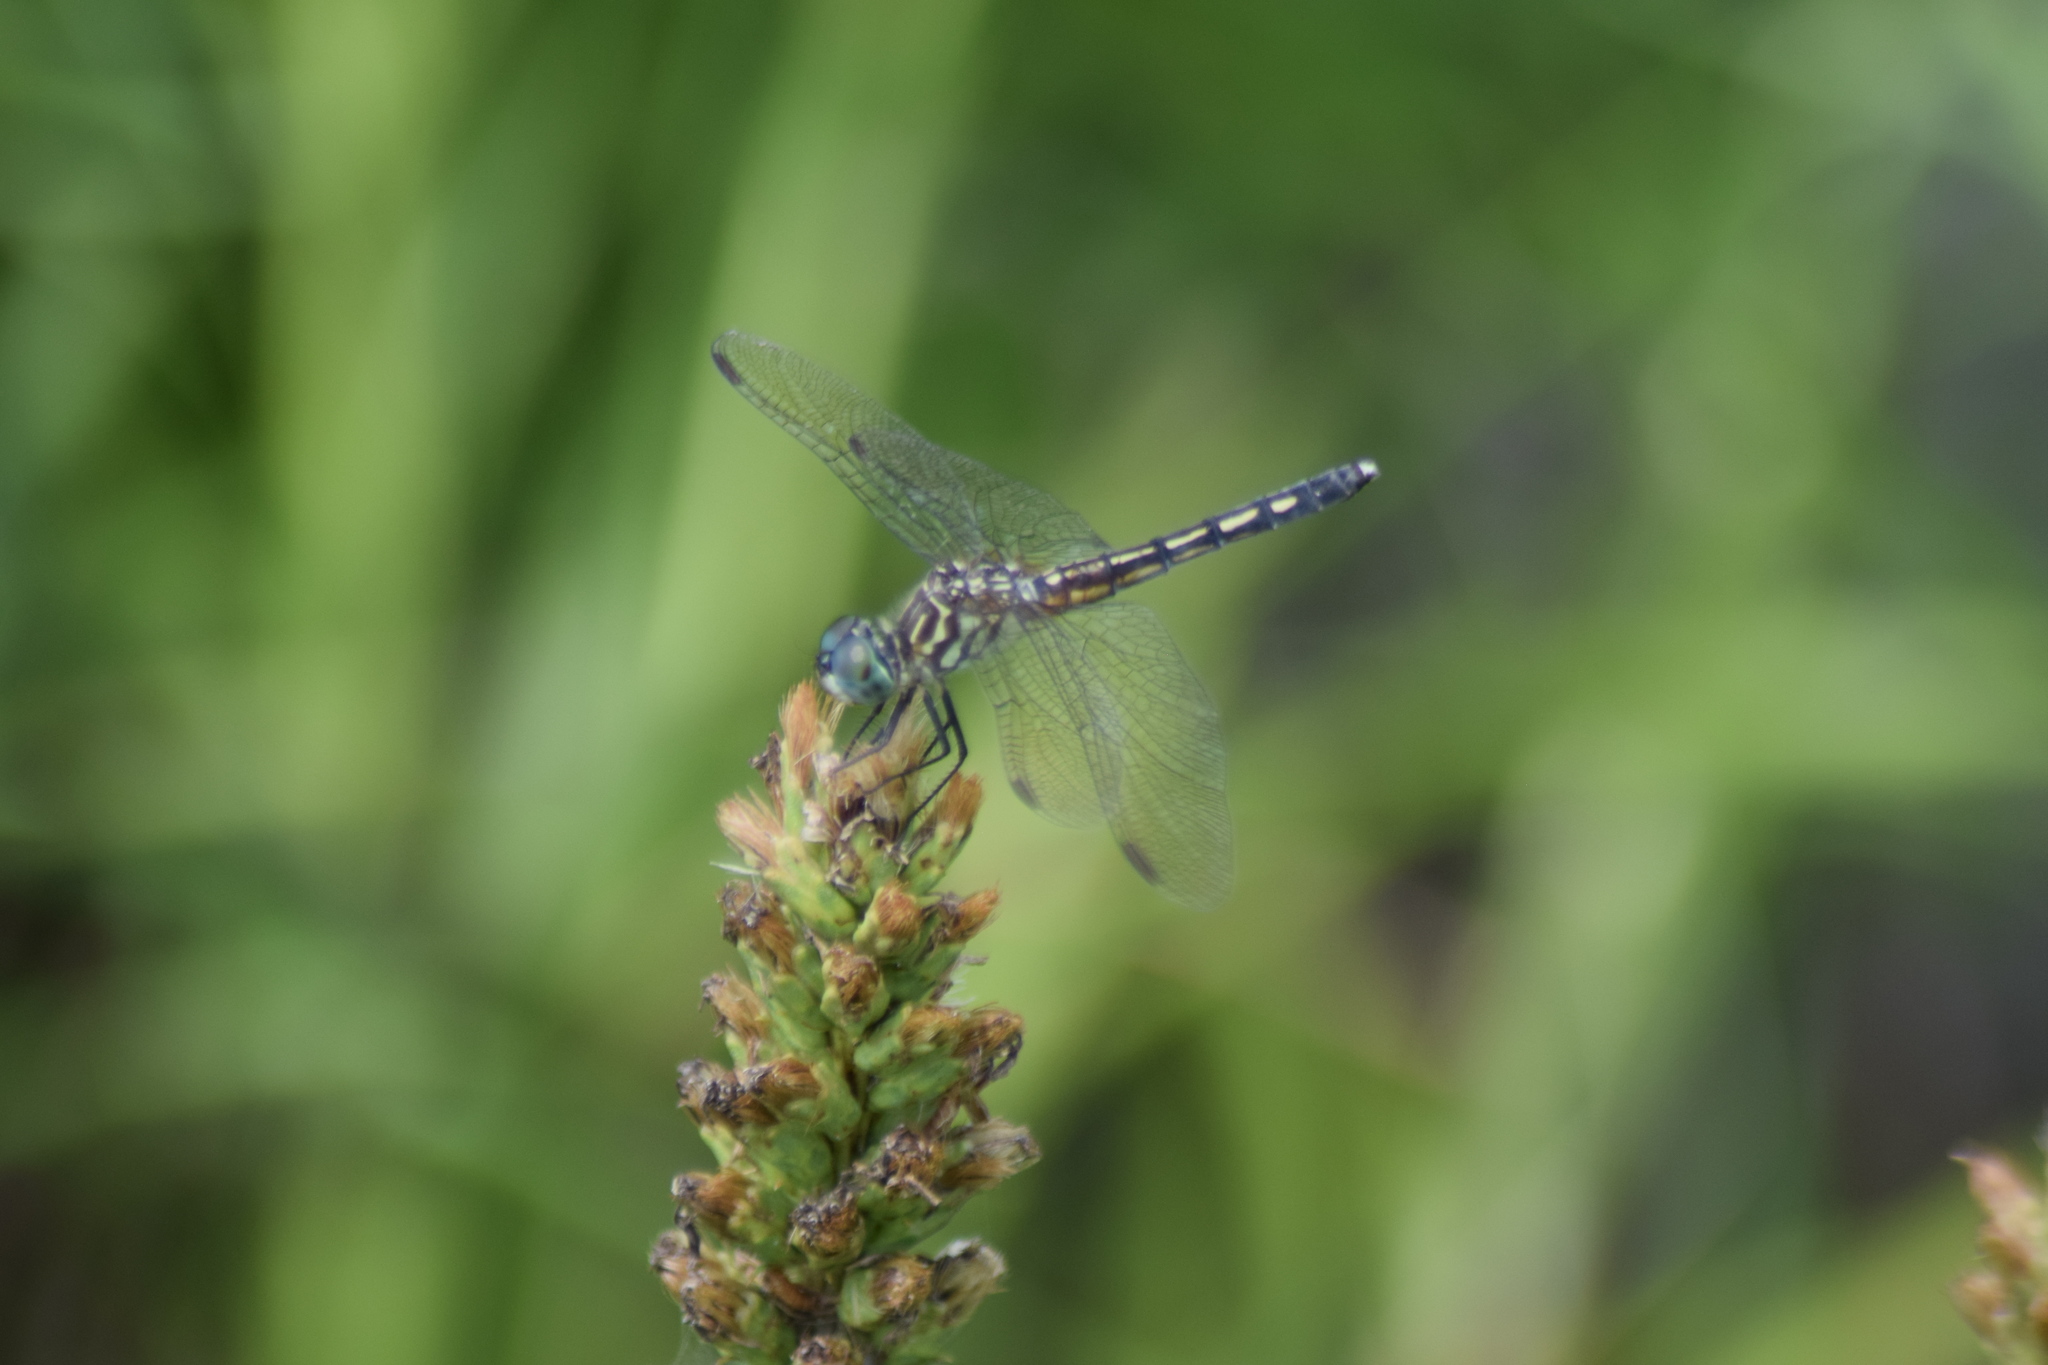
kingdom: Animalia
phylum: Arthropoda
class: Insecta
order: Odonata
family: Libellulidae
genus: Pachydiplax
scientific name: Pachydiplax longipennis
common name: Blue dasher
